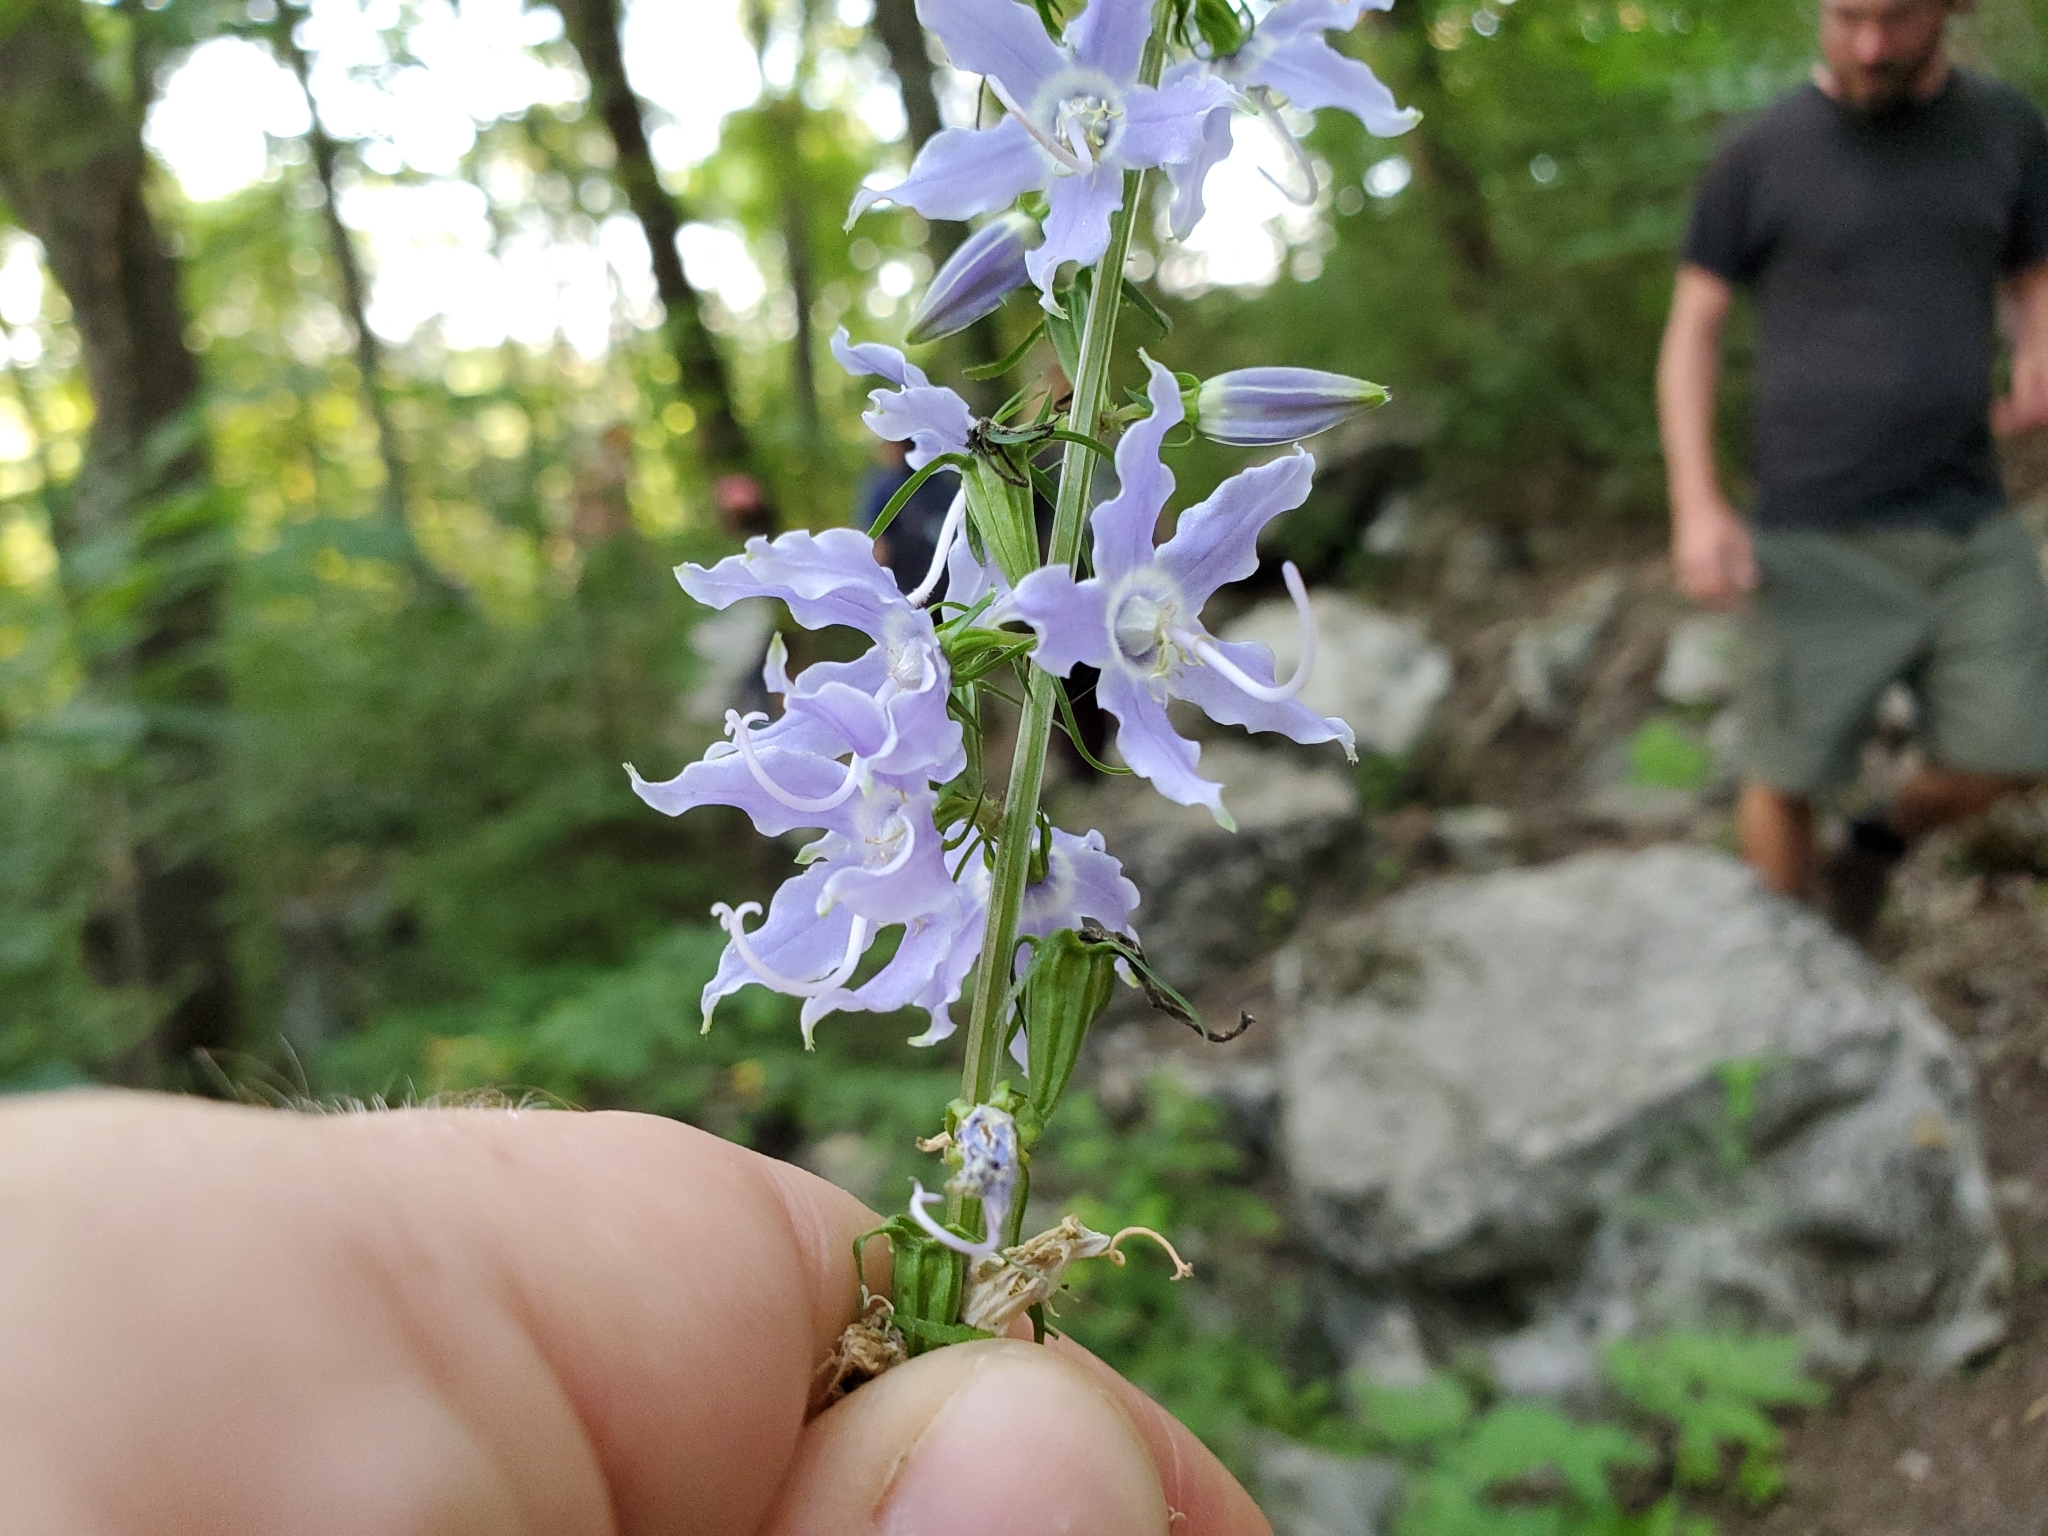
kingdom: Plantae
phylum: Tracheophyta
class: Magnoliopsida
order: Asterales
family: Campanulaceae
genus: Campanulastrum
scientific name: Campanulastrum americanum
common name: American bellflower
